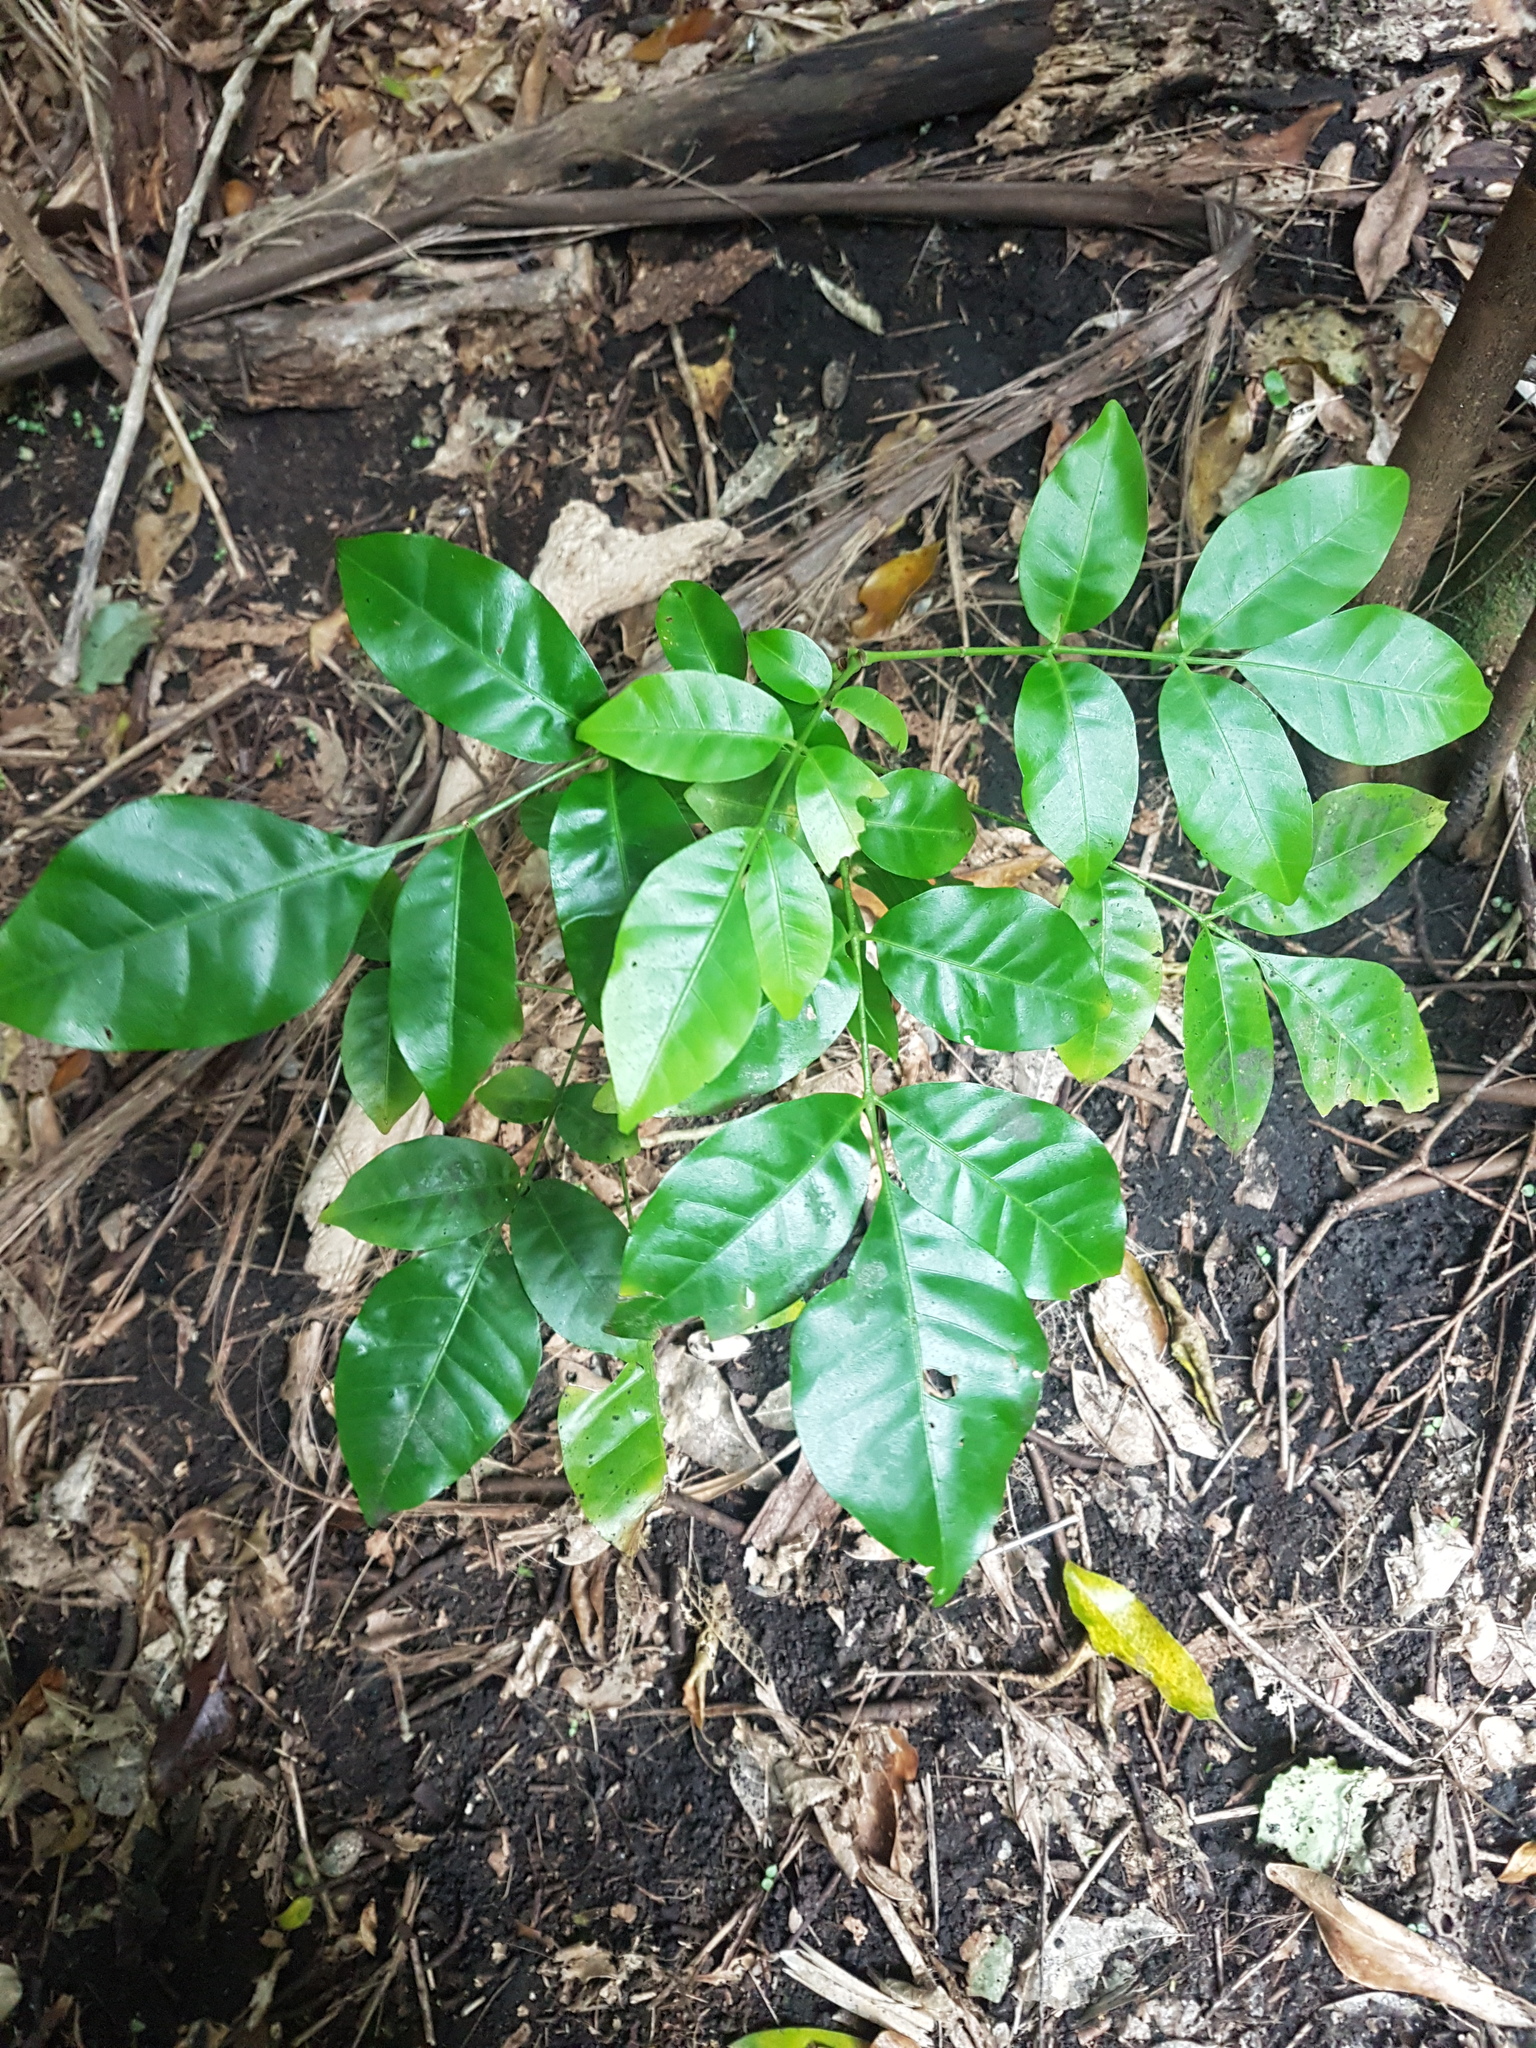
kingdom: Plantae
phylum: Tracheophyta
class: Magnoliopsida
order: Sapindales
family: Meliaceae
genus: Didymocheton
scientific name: Didymocheton spectabilis
